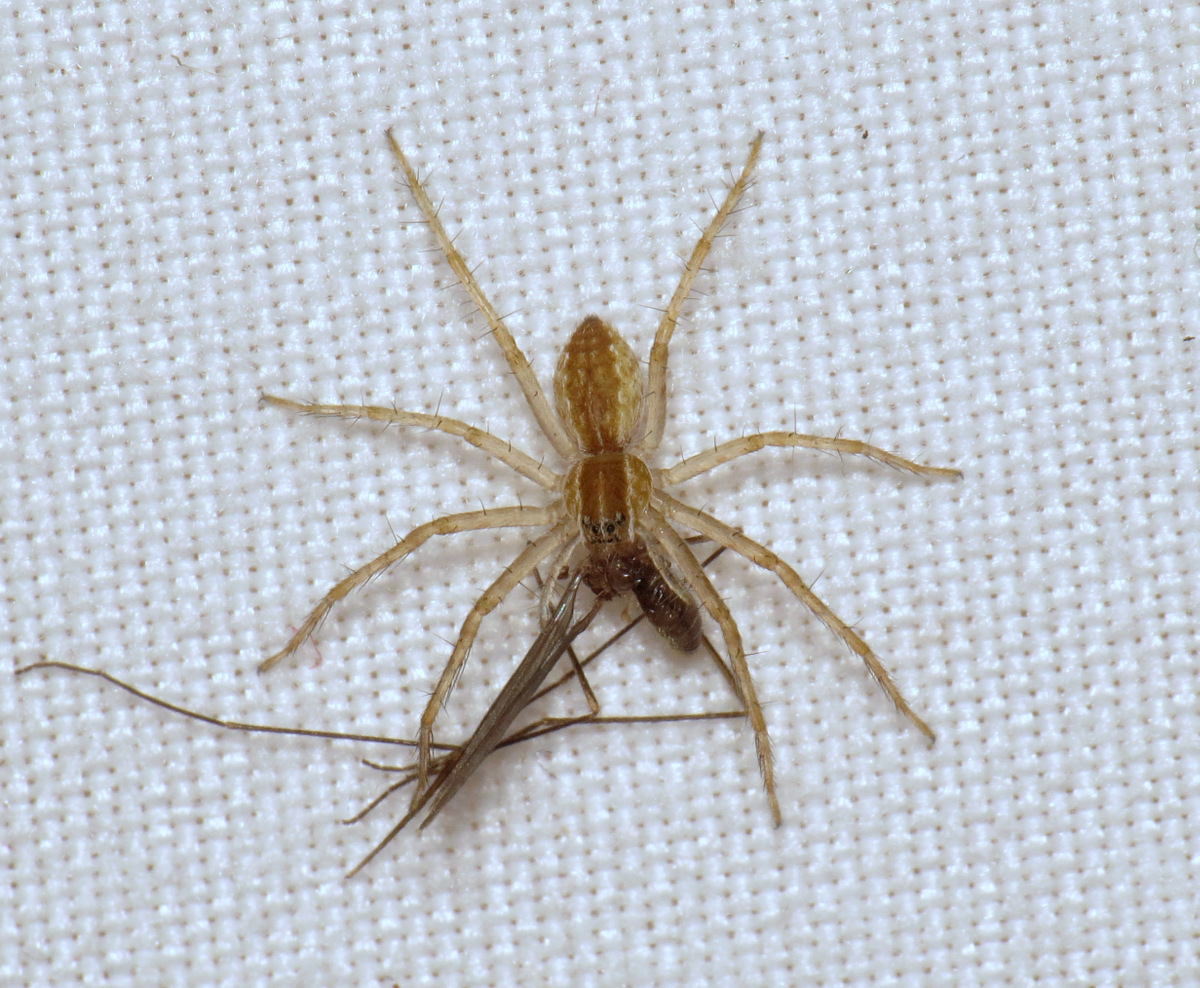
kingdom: Animalia
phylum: Arthropoda
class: Arachnida
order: Araneae
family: Pisauridae
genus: Pisaurina
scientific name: Pisaurina mira
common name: American nursery web spider
